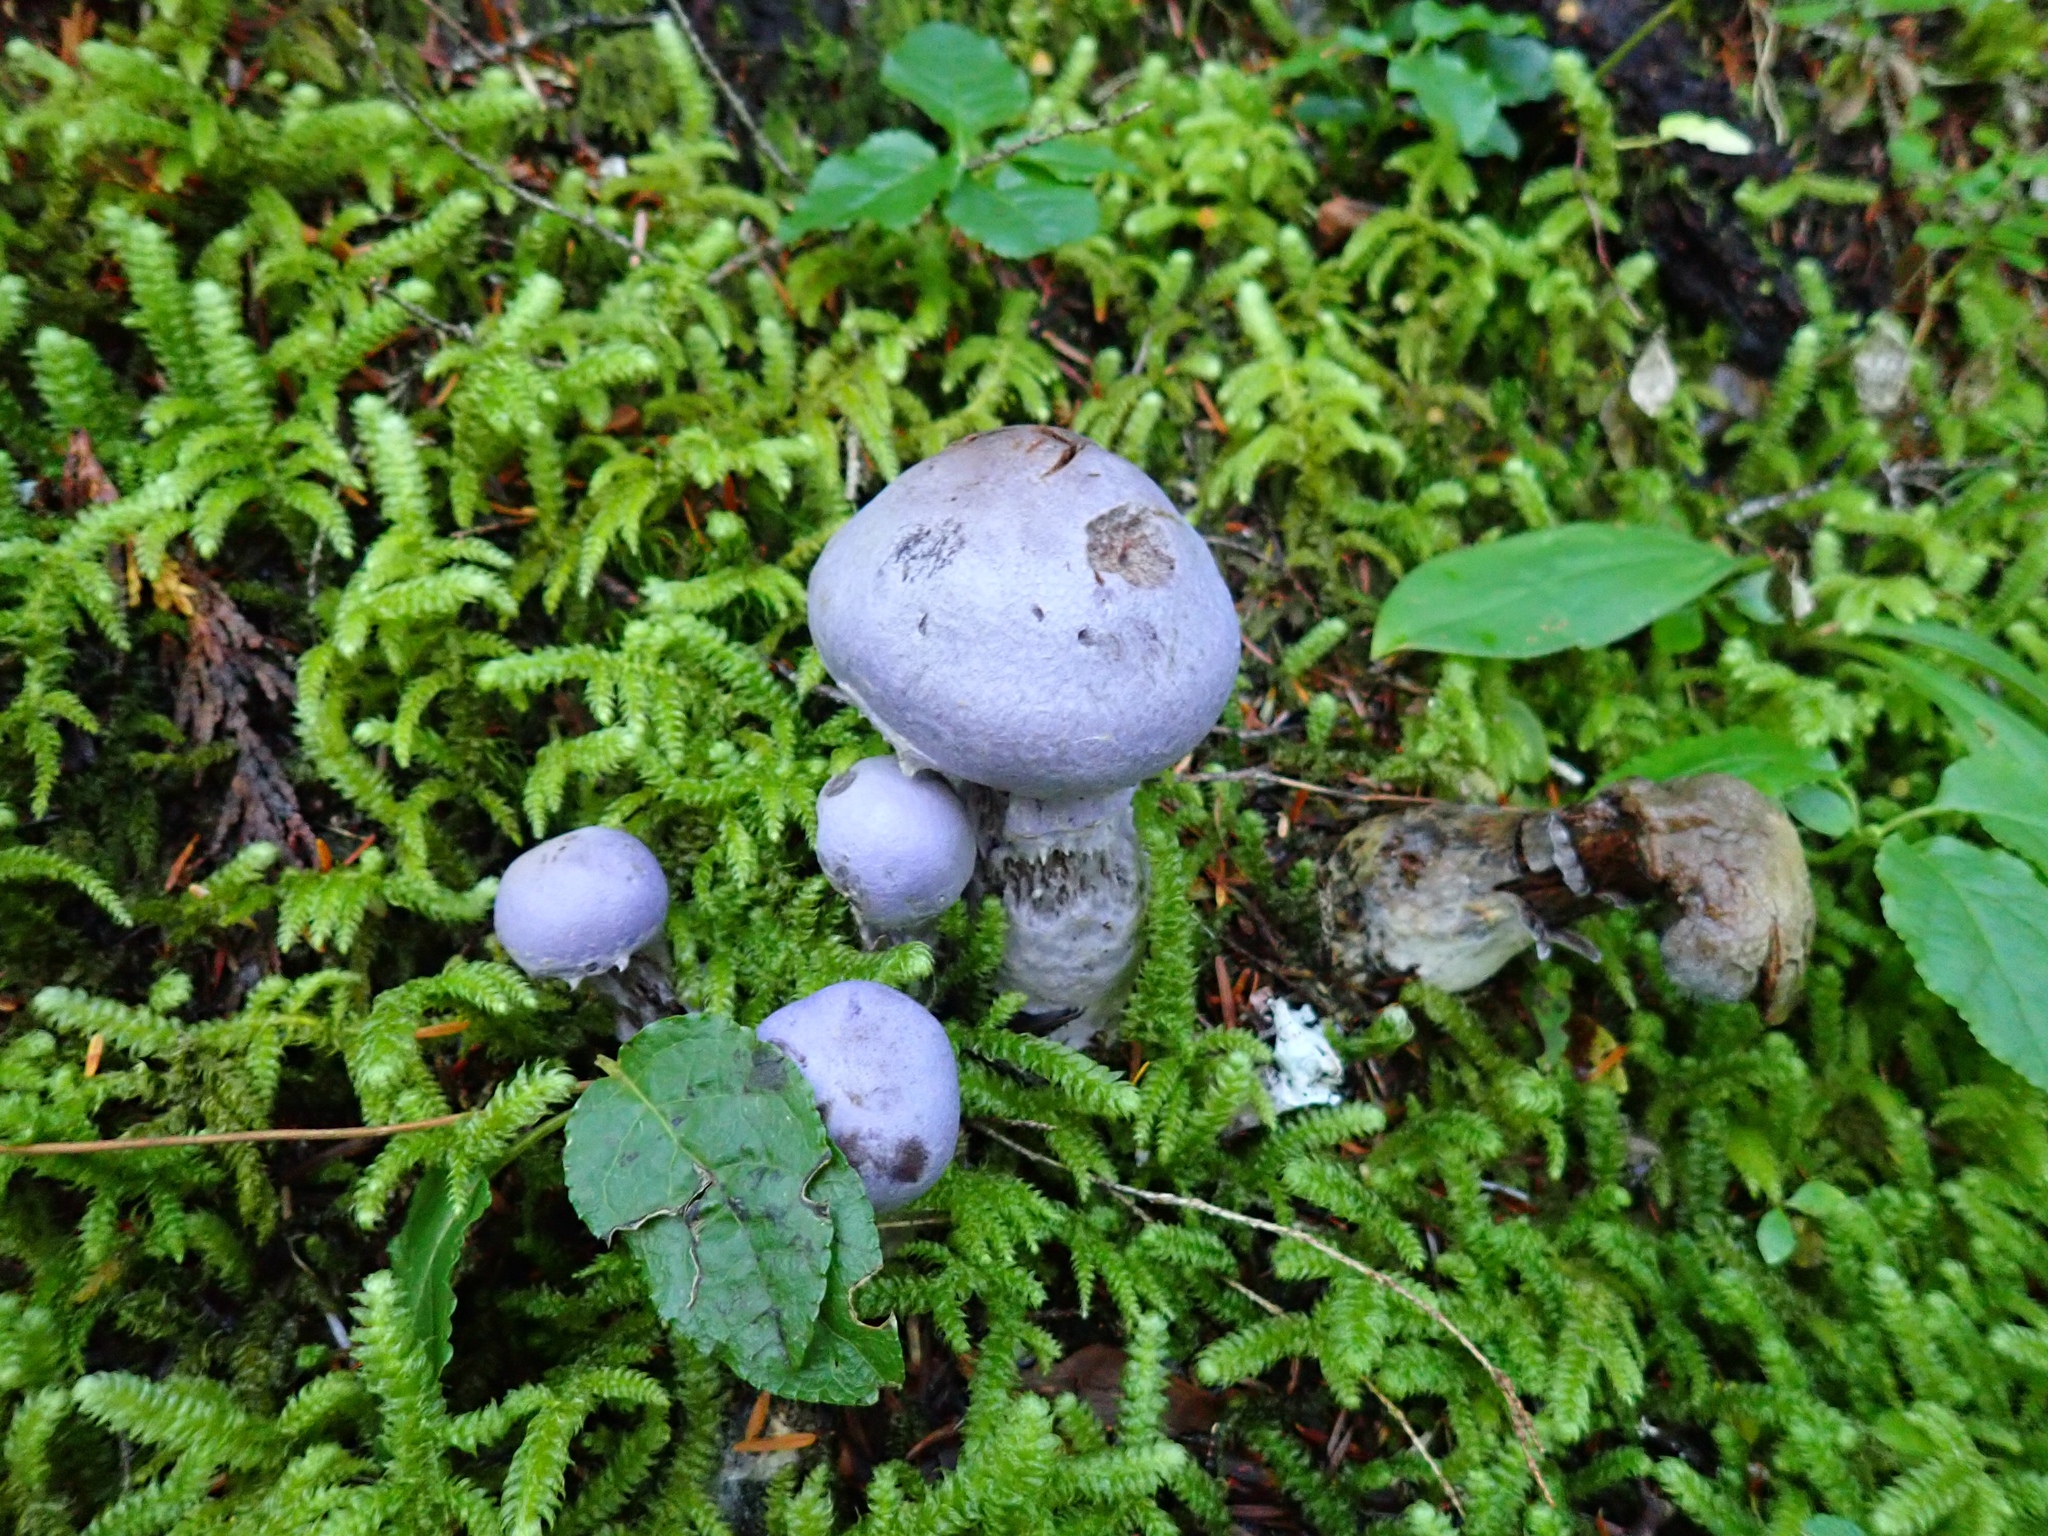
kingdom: Fungi
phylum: Basidiomycota
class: Agaricomycetes
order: Agaricales
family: Cortinariaceae
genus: Cortinarius
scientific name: Cortinarius traganus
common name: Gassy webcap
